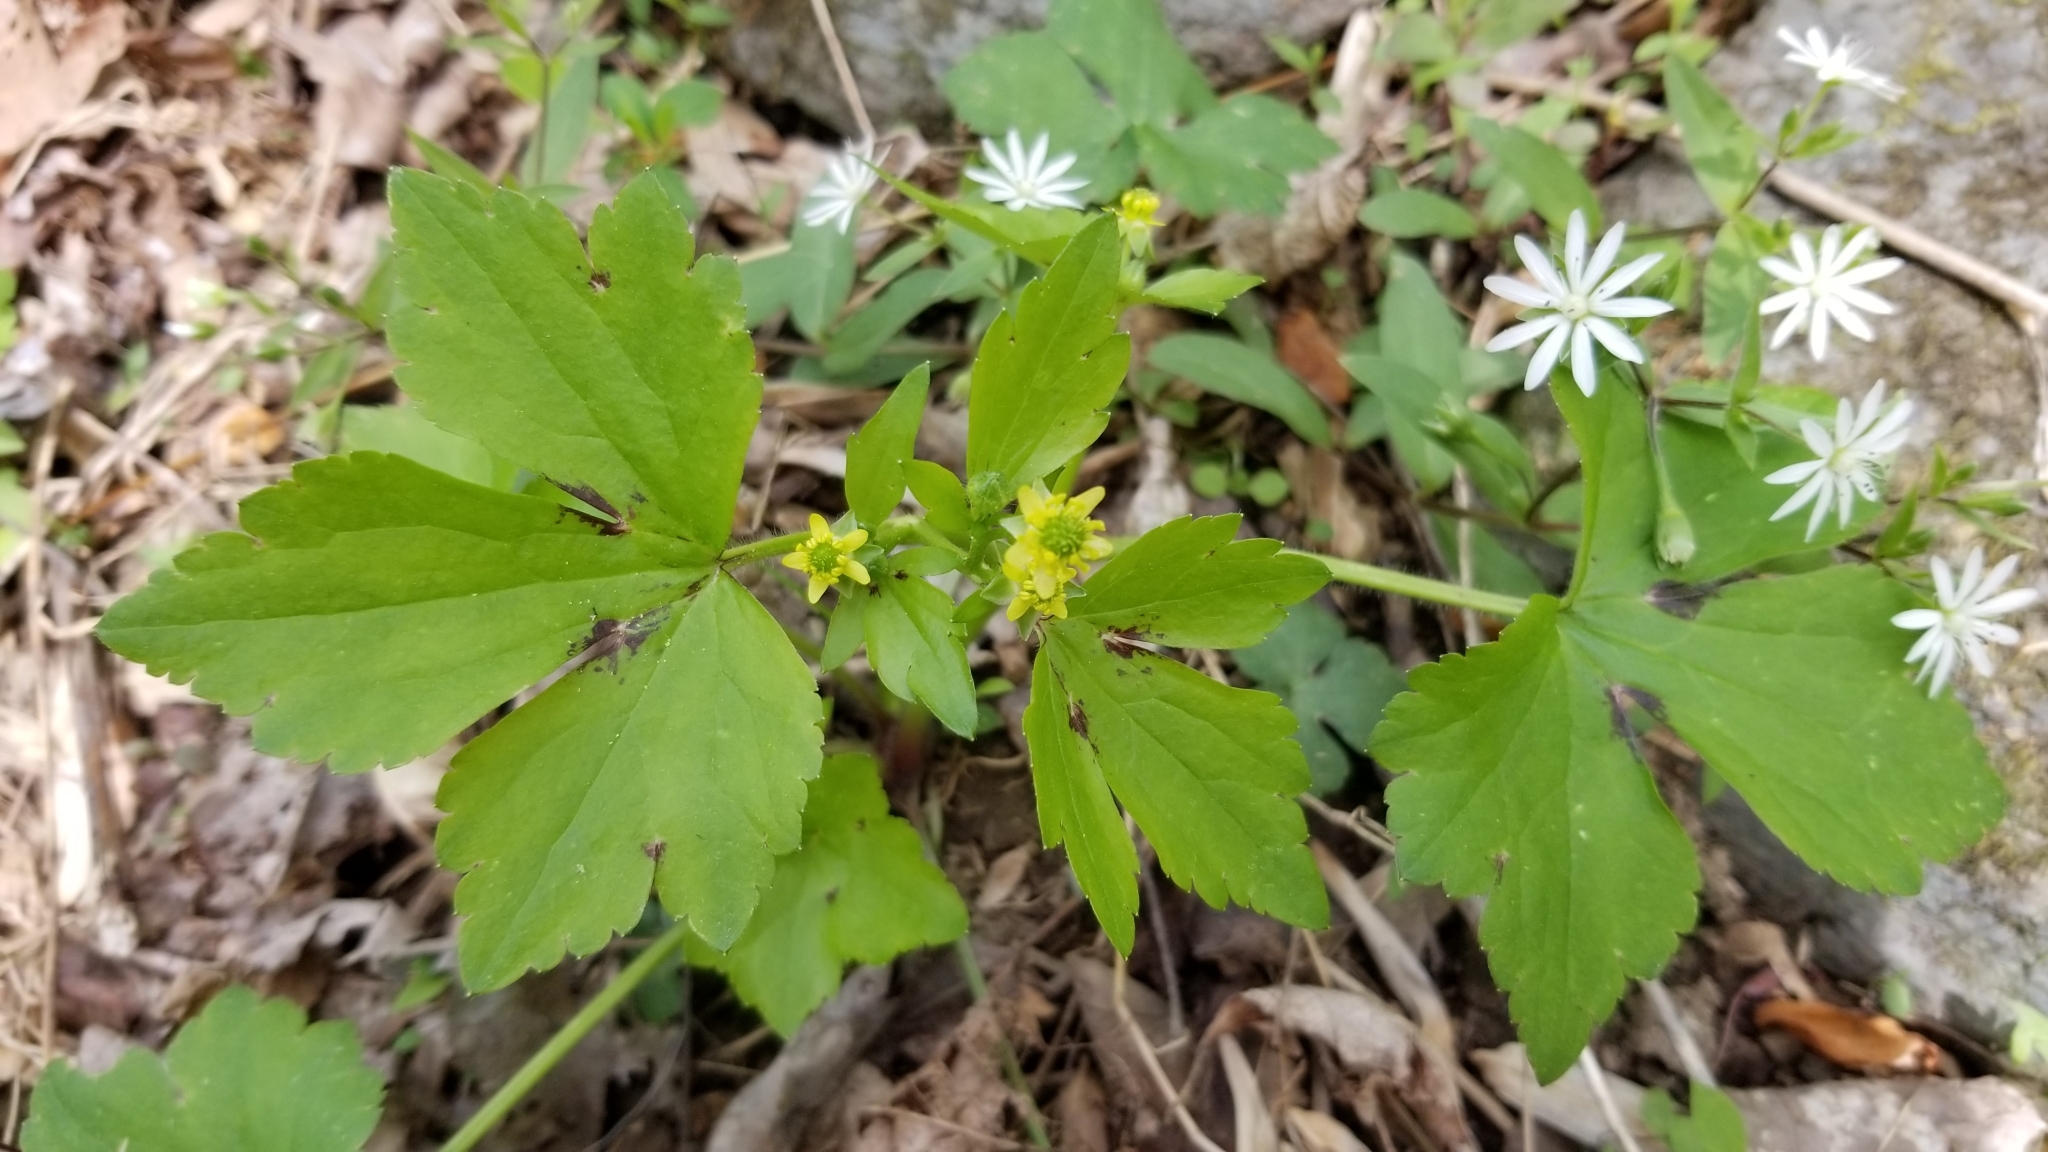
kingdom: Plantae
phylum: Tracheophyta
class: Magnoliopsida
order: Ranunculales
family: Ranunculaceae
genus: Ranunculus
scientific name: Ranunculus recurvatus
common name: Blisterwort
